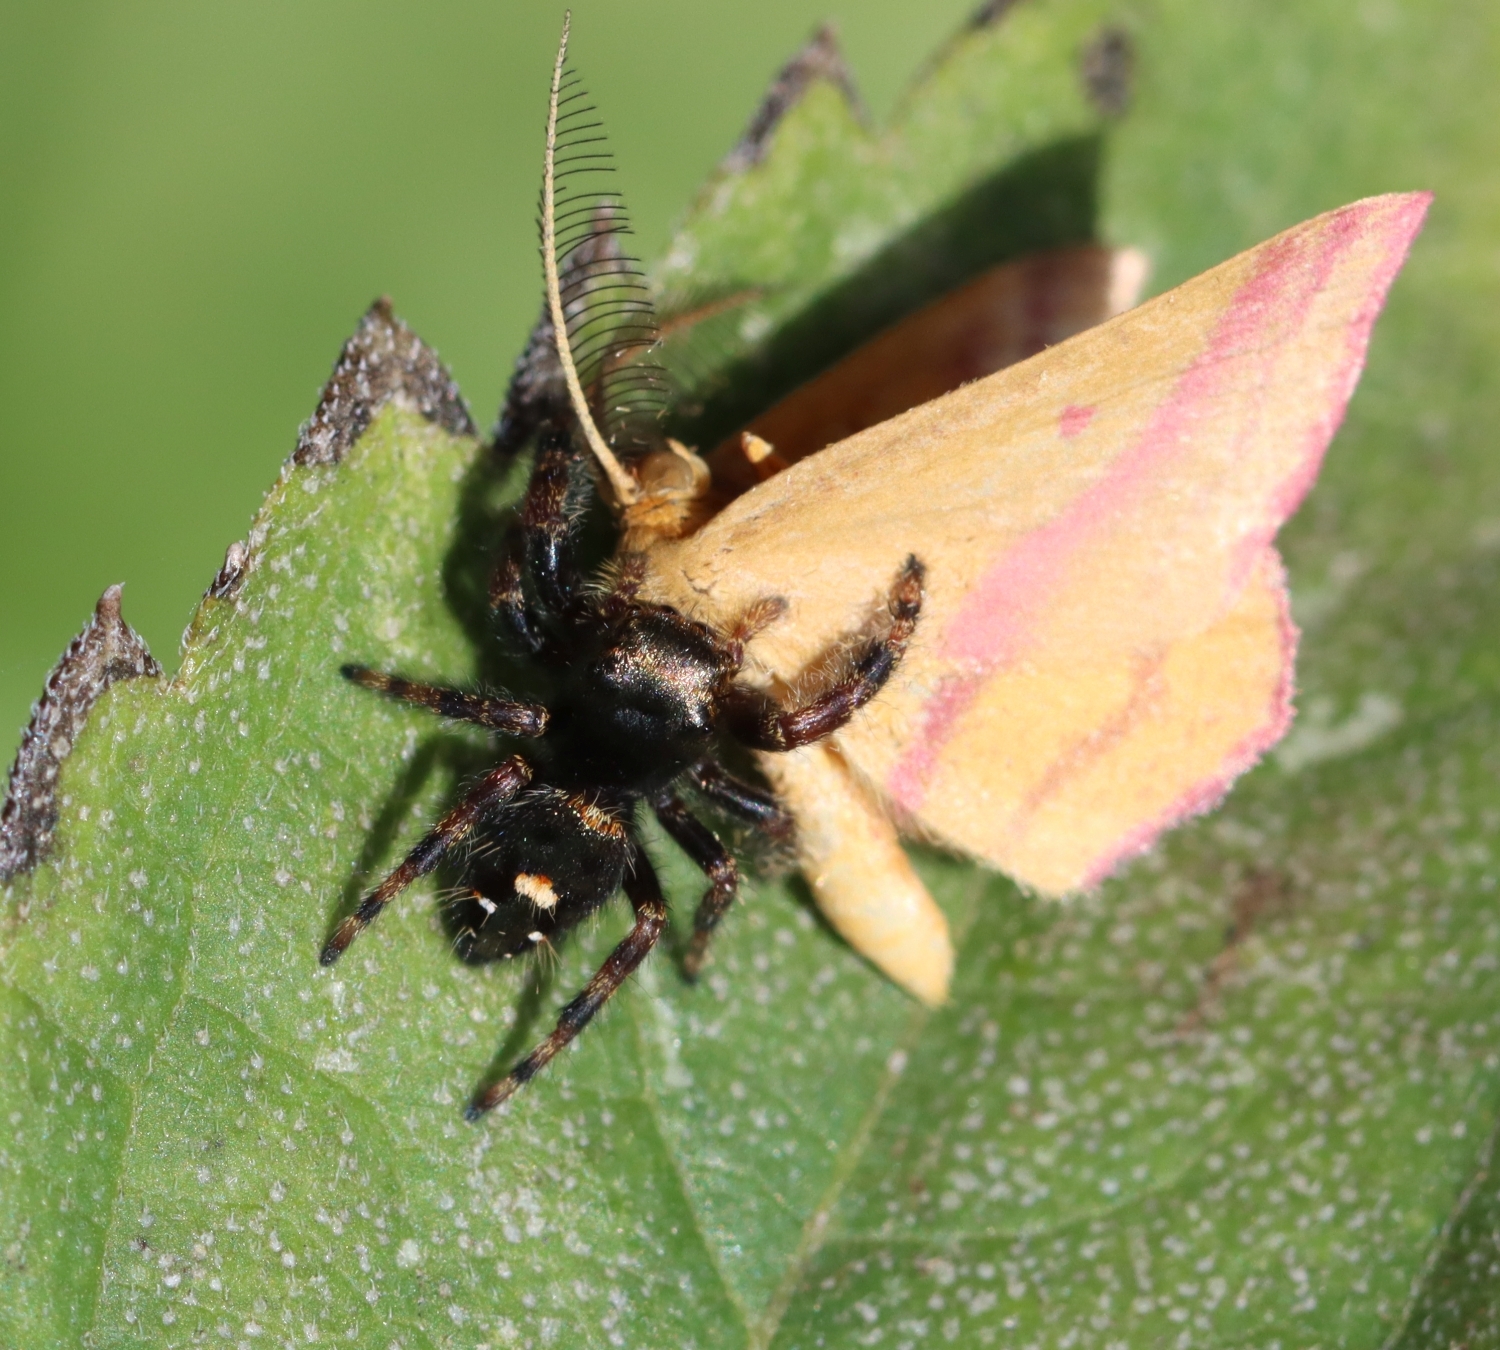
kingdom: Animalia
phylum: Arthropoda
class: Arachnida
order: Araneae
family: Salticidae
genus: Phidippus
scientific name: Phidippus audax
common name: Bold jumper
